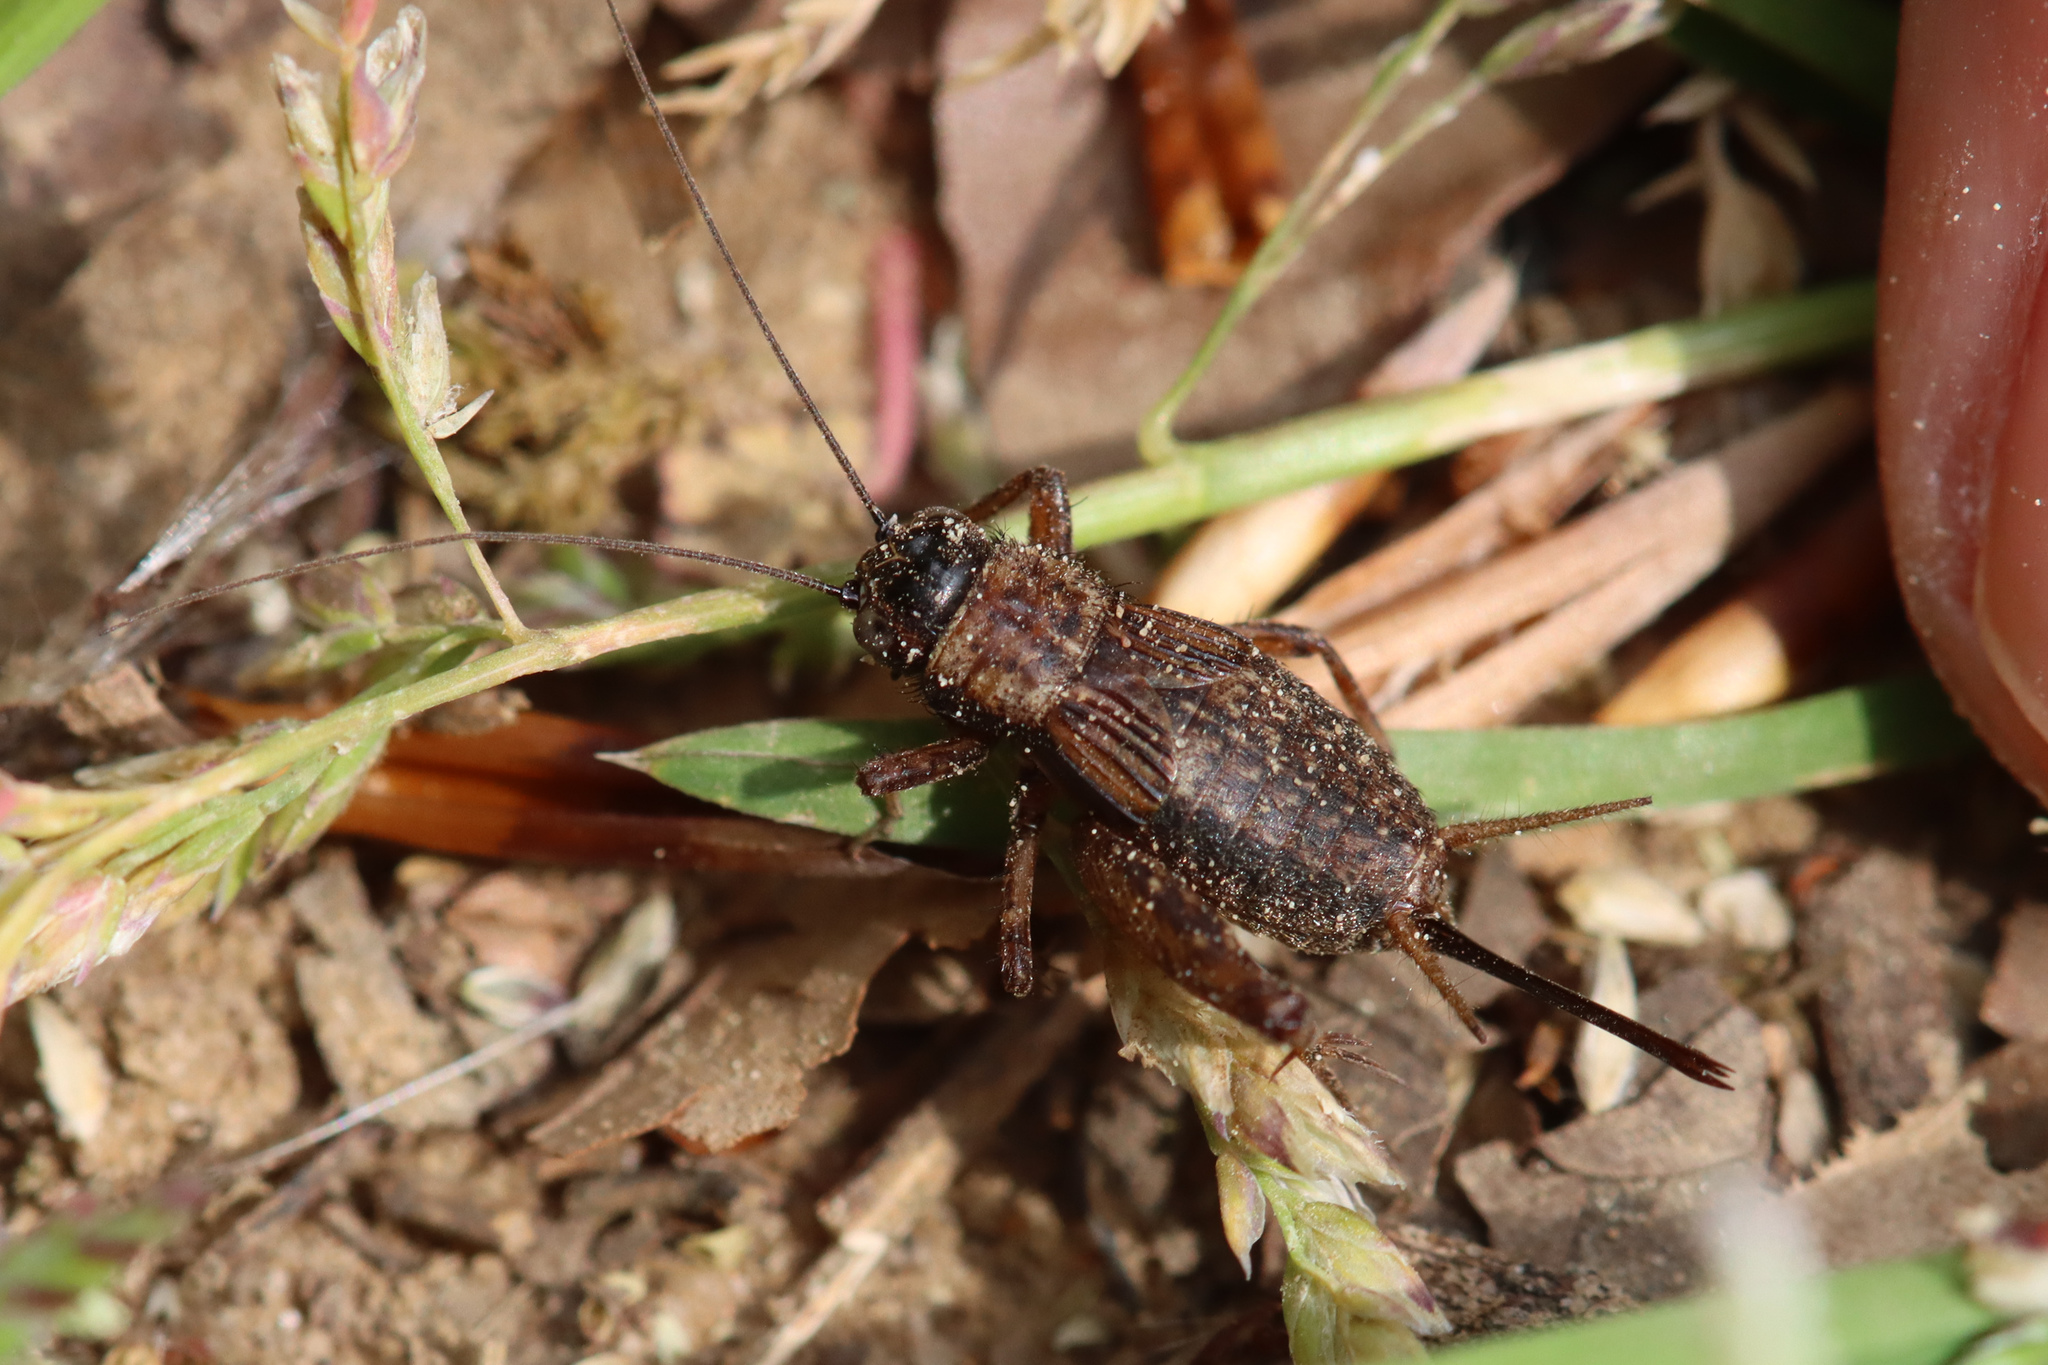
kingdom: Animalia
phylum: Arthropoda
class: Insecta
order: Orthoptera
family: Trigonidiidae
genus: Nemobius
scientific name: Nemobius sylvestris
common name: Wood-cricket
